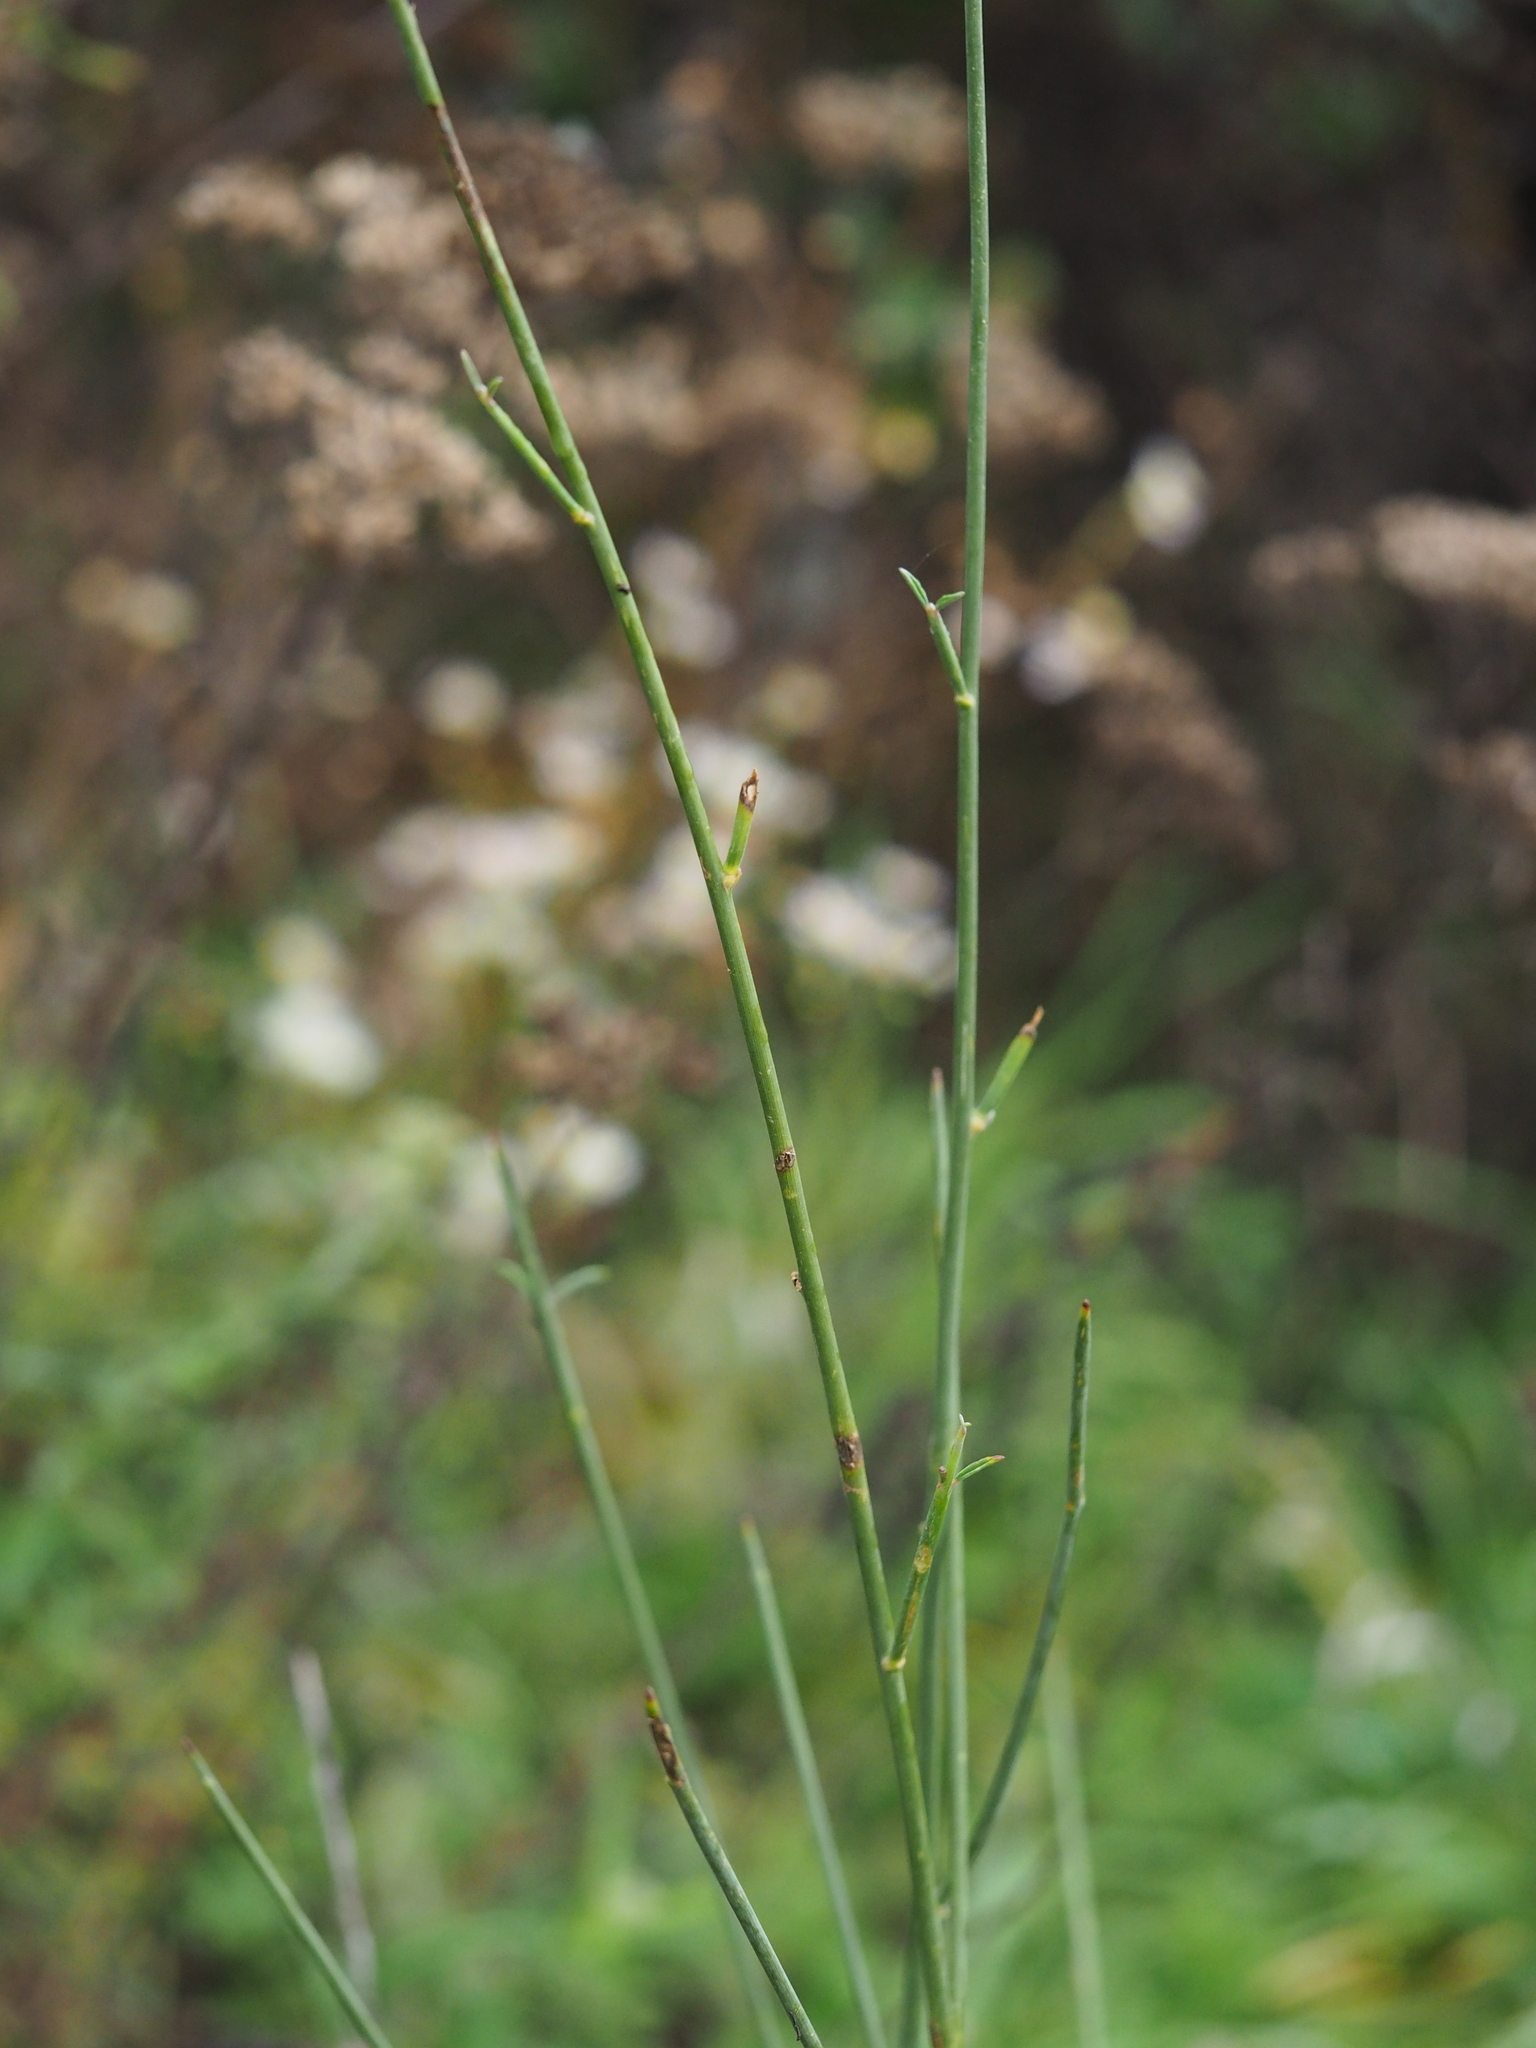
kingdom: Plantae
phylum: Tracheophyta
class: Magnoliopsida
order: Fabales
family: Fabaceae
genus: Spartium
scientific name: Spartium junceum
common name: Spanish broom
